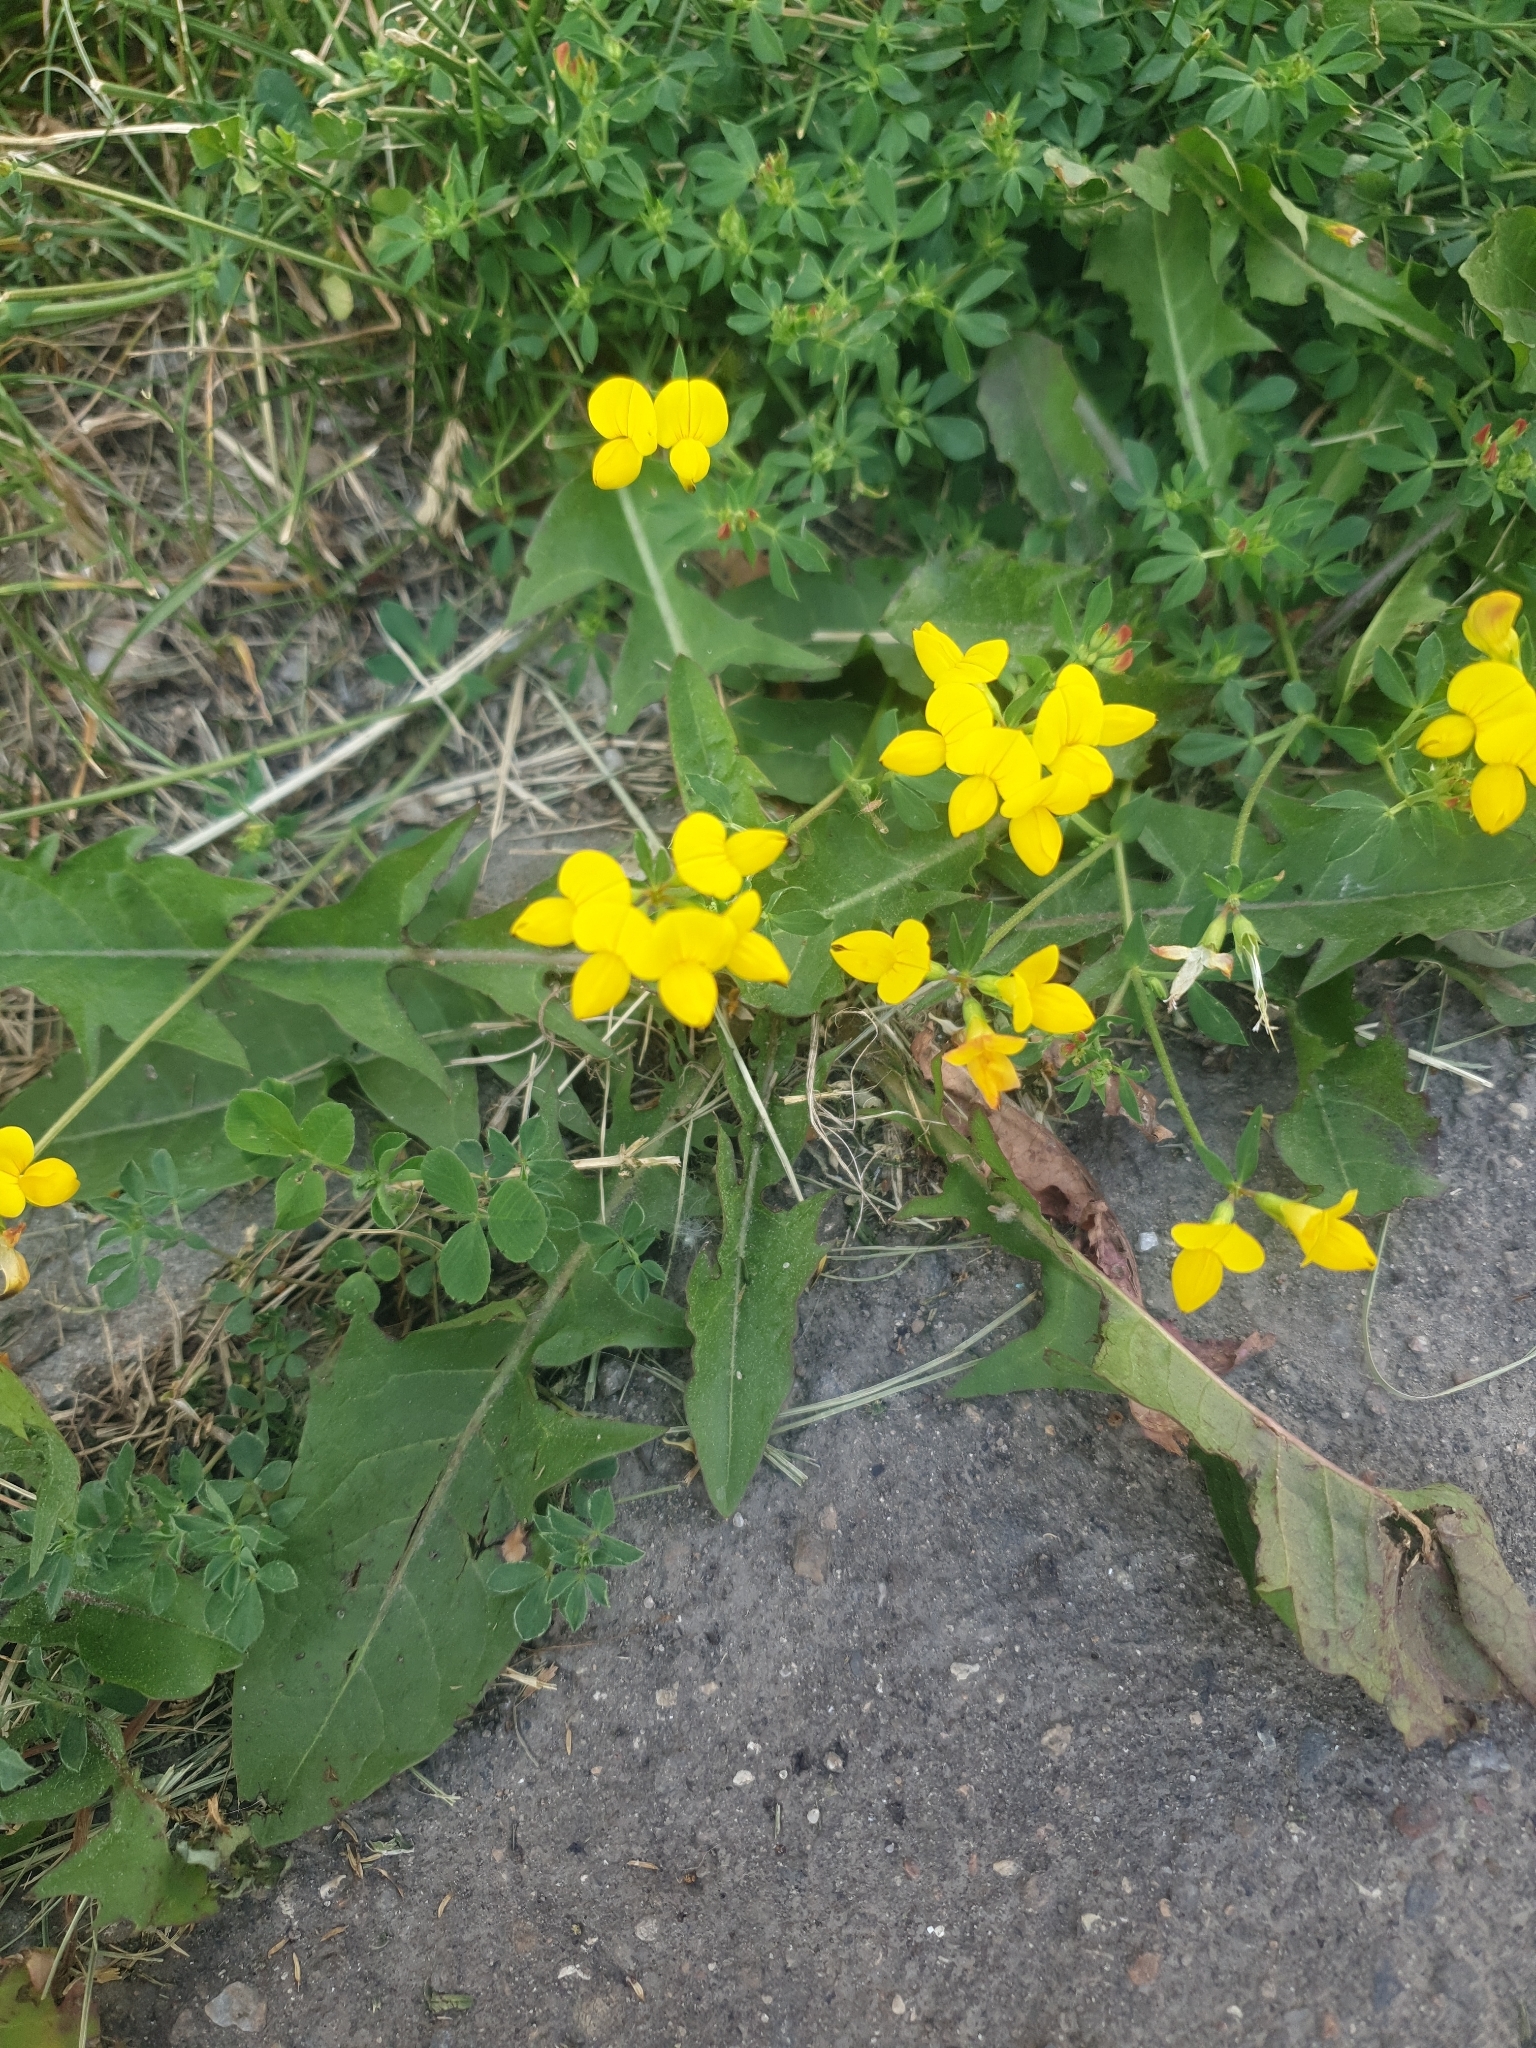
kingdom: Plantae
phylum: Tracheophyta
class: Magnoliopsida
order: Fabales
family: Fabaceae
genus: Lotus
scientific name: Lotus corniculatus
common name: Common bird's-foot-trefoil
